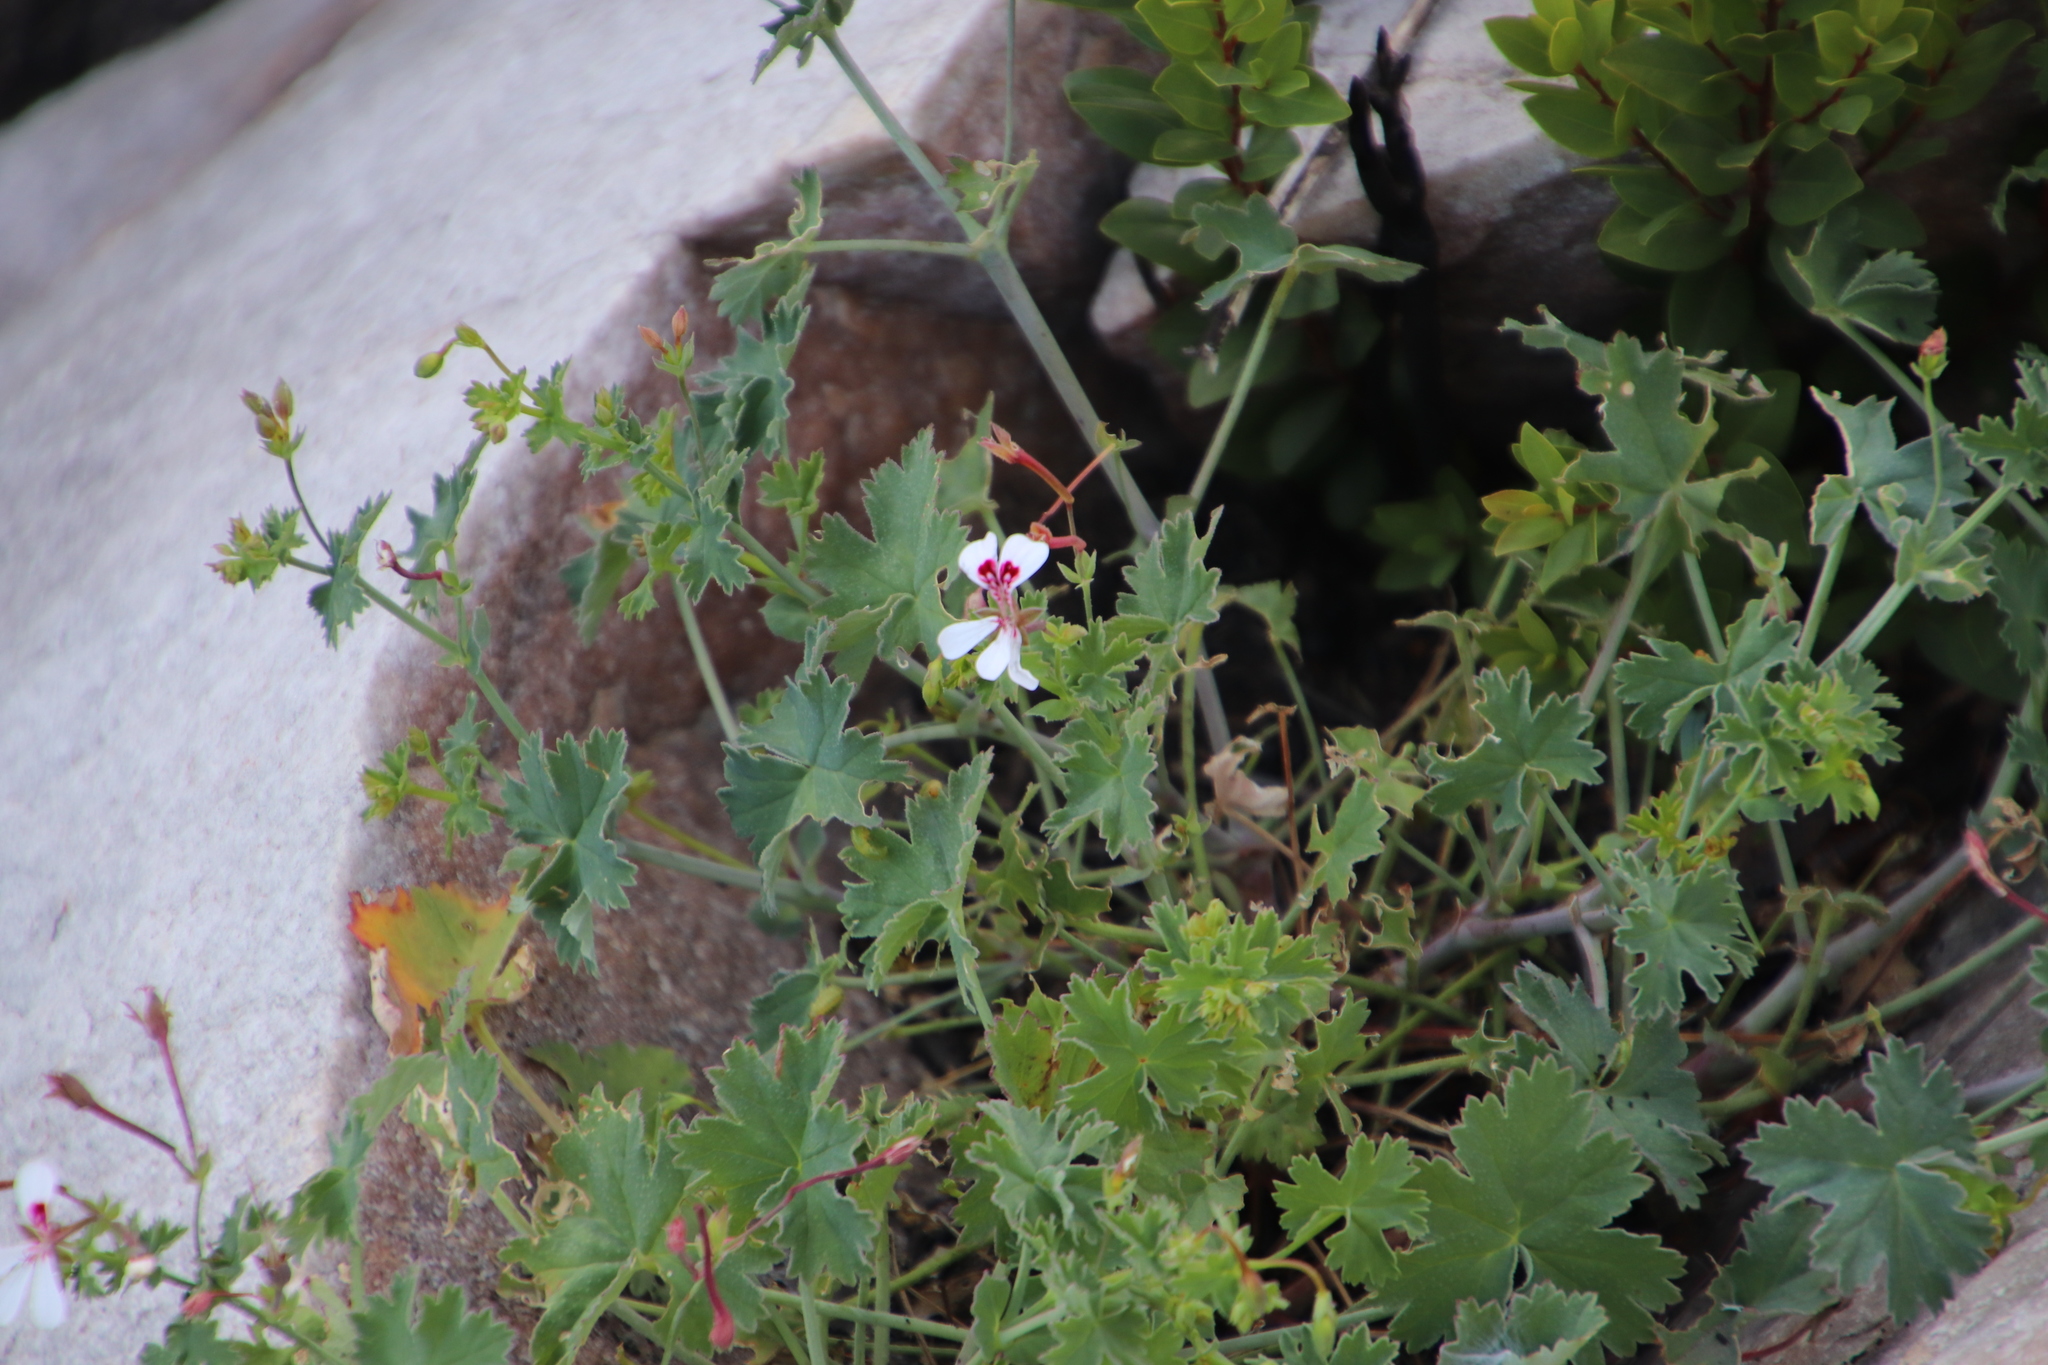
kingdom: Plantae
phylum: Tracheophyta
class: Magnoliopsida
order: Geraniales
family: Geraniaceae
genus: Pelargonium
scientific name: Pelargonium patulum
